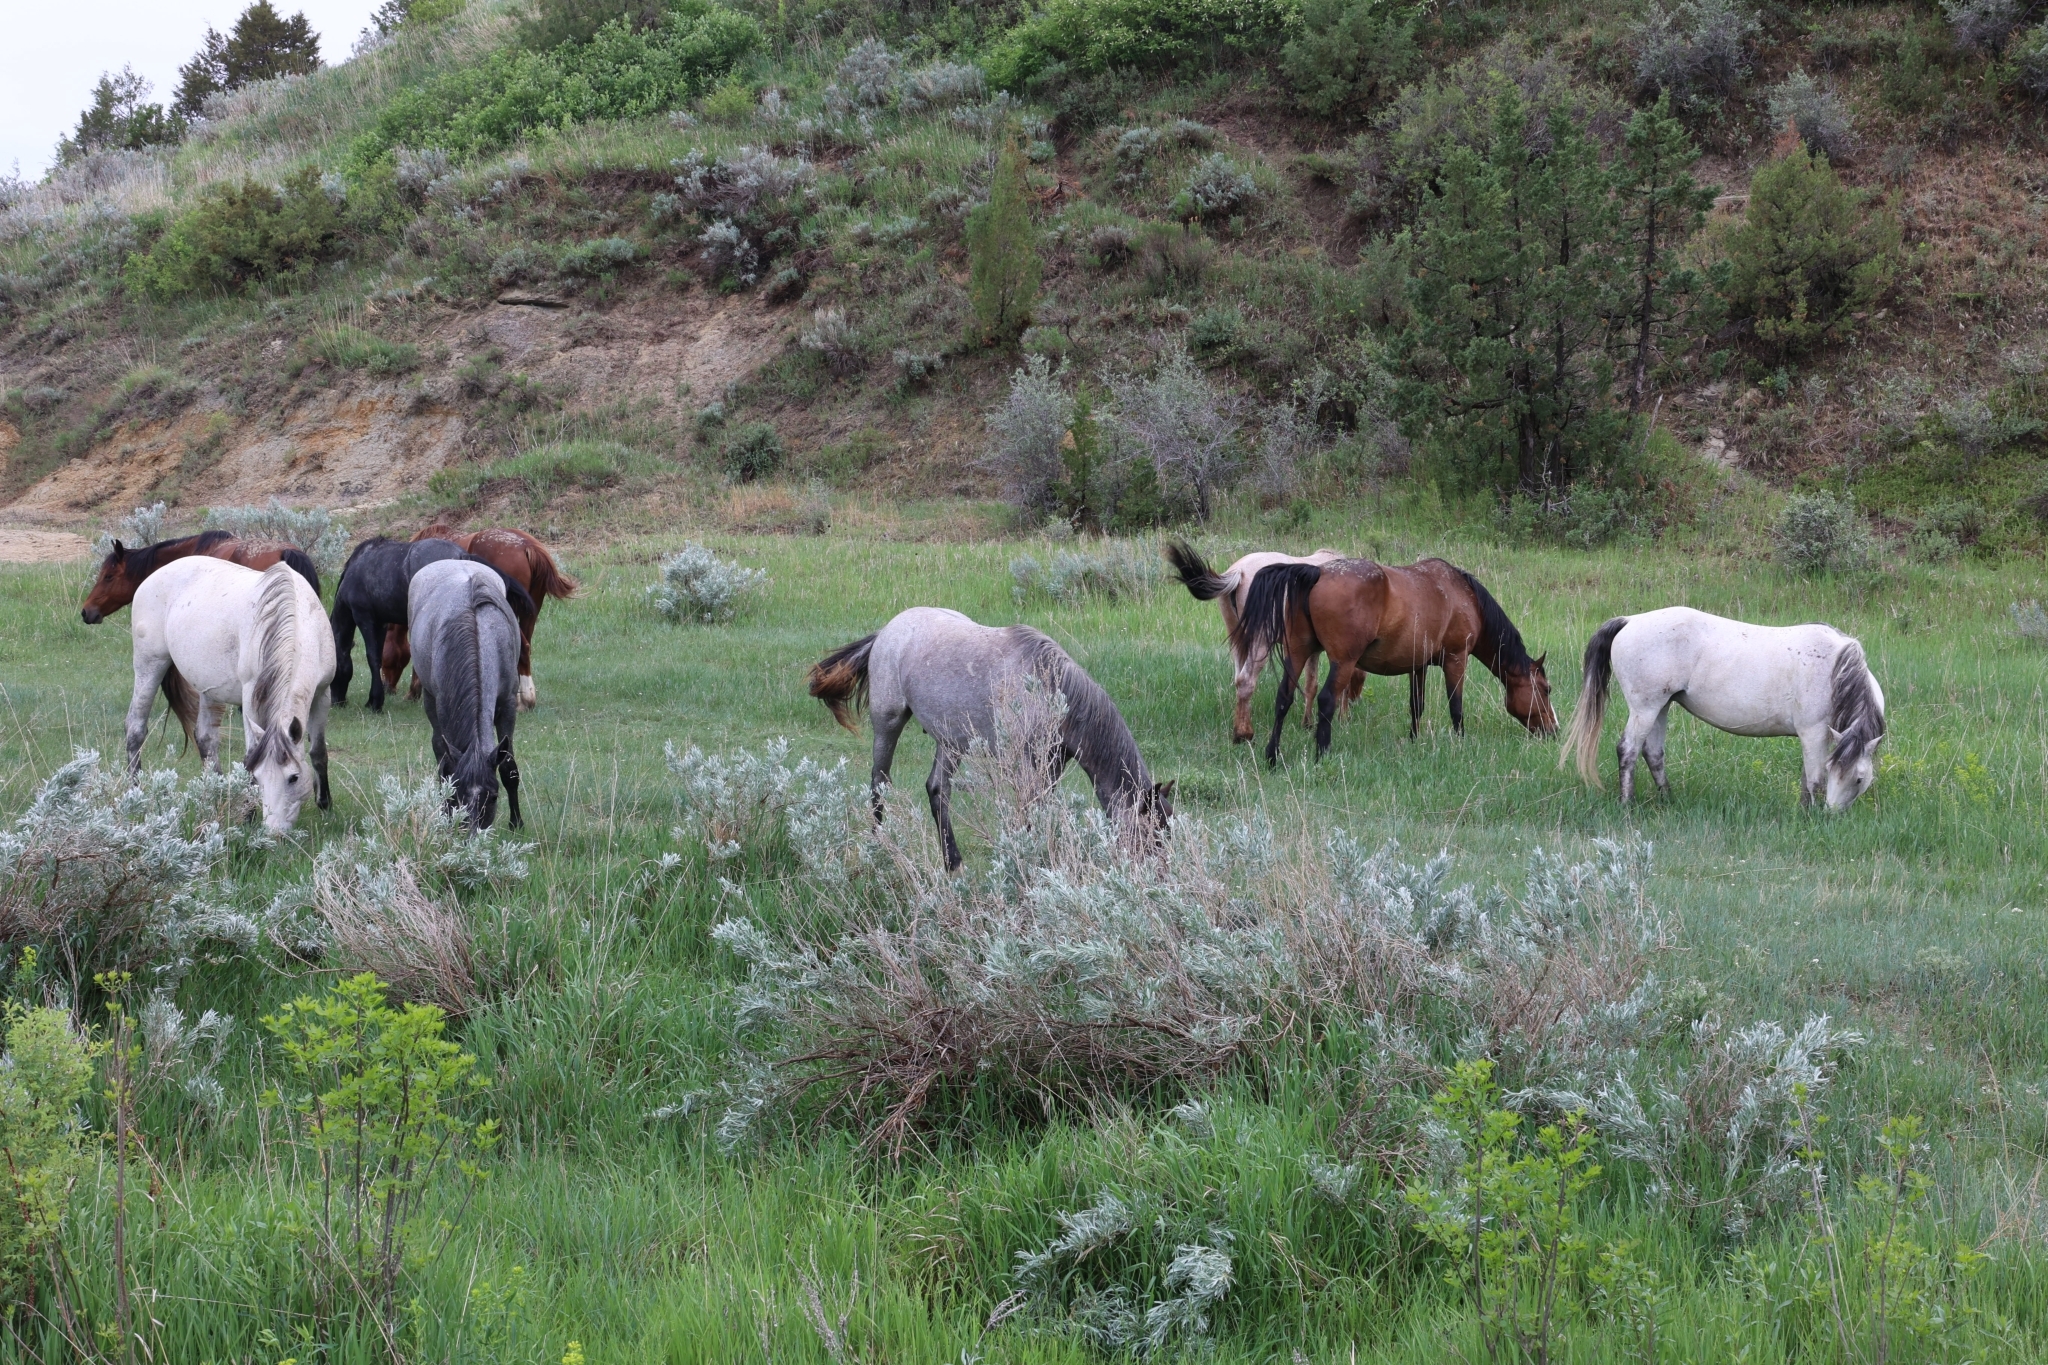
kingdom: Animalia
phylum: Chordata
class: Mammalia
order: Perissodactyla
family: Equidae
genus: Equus
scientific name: Equus caballus
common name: Horse
